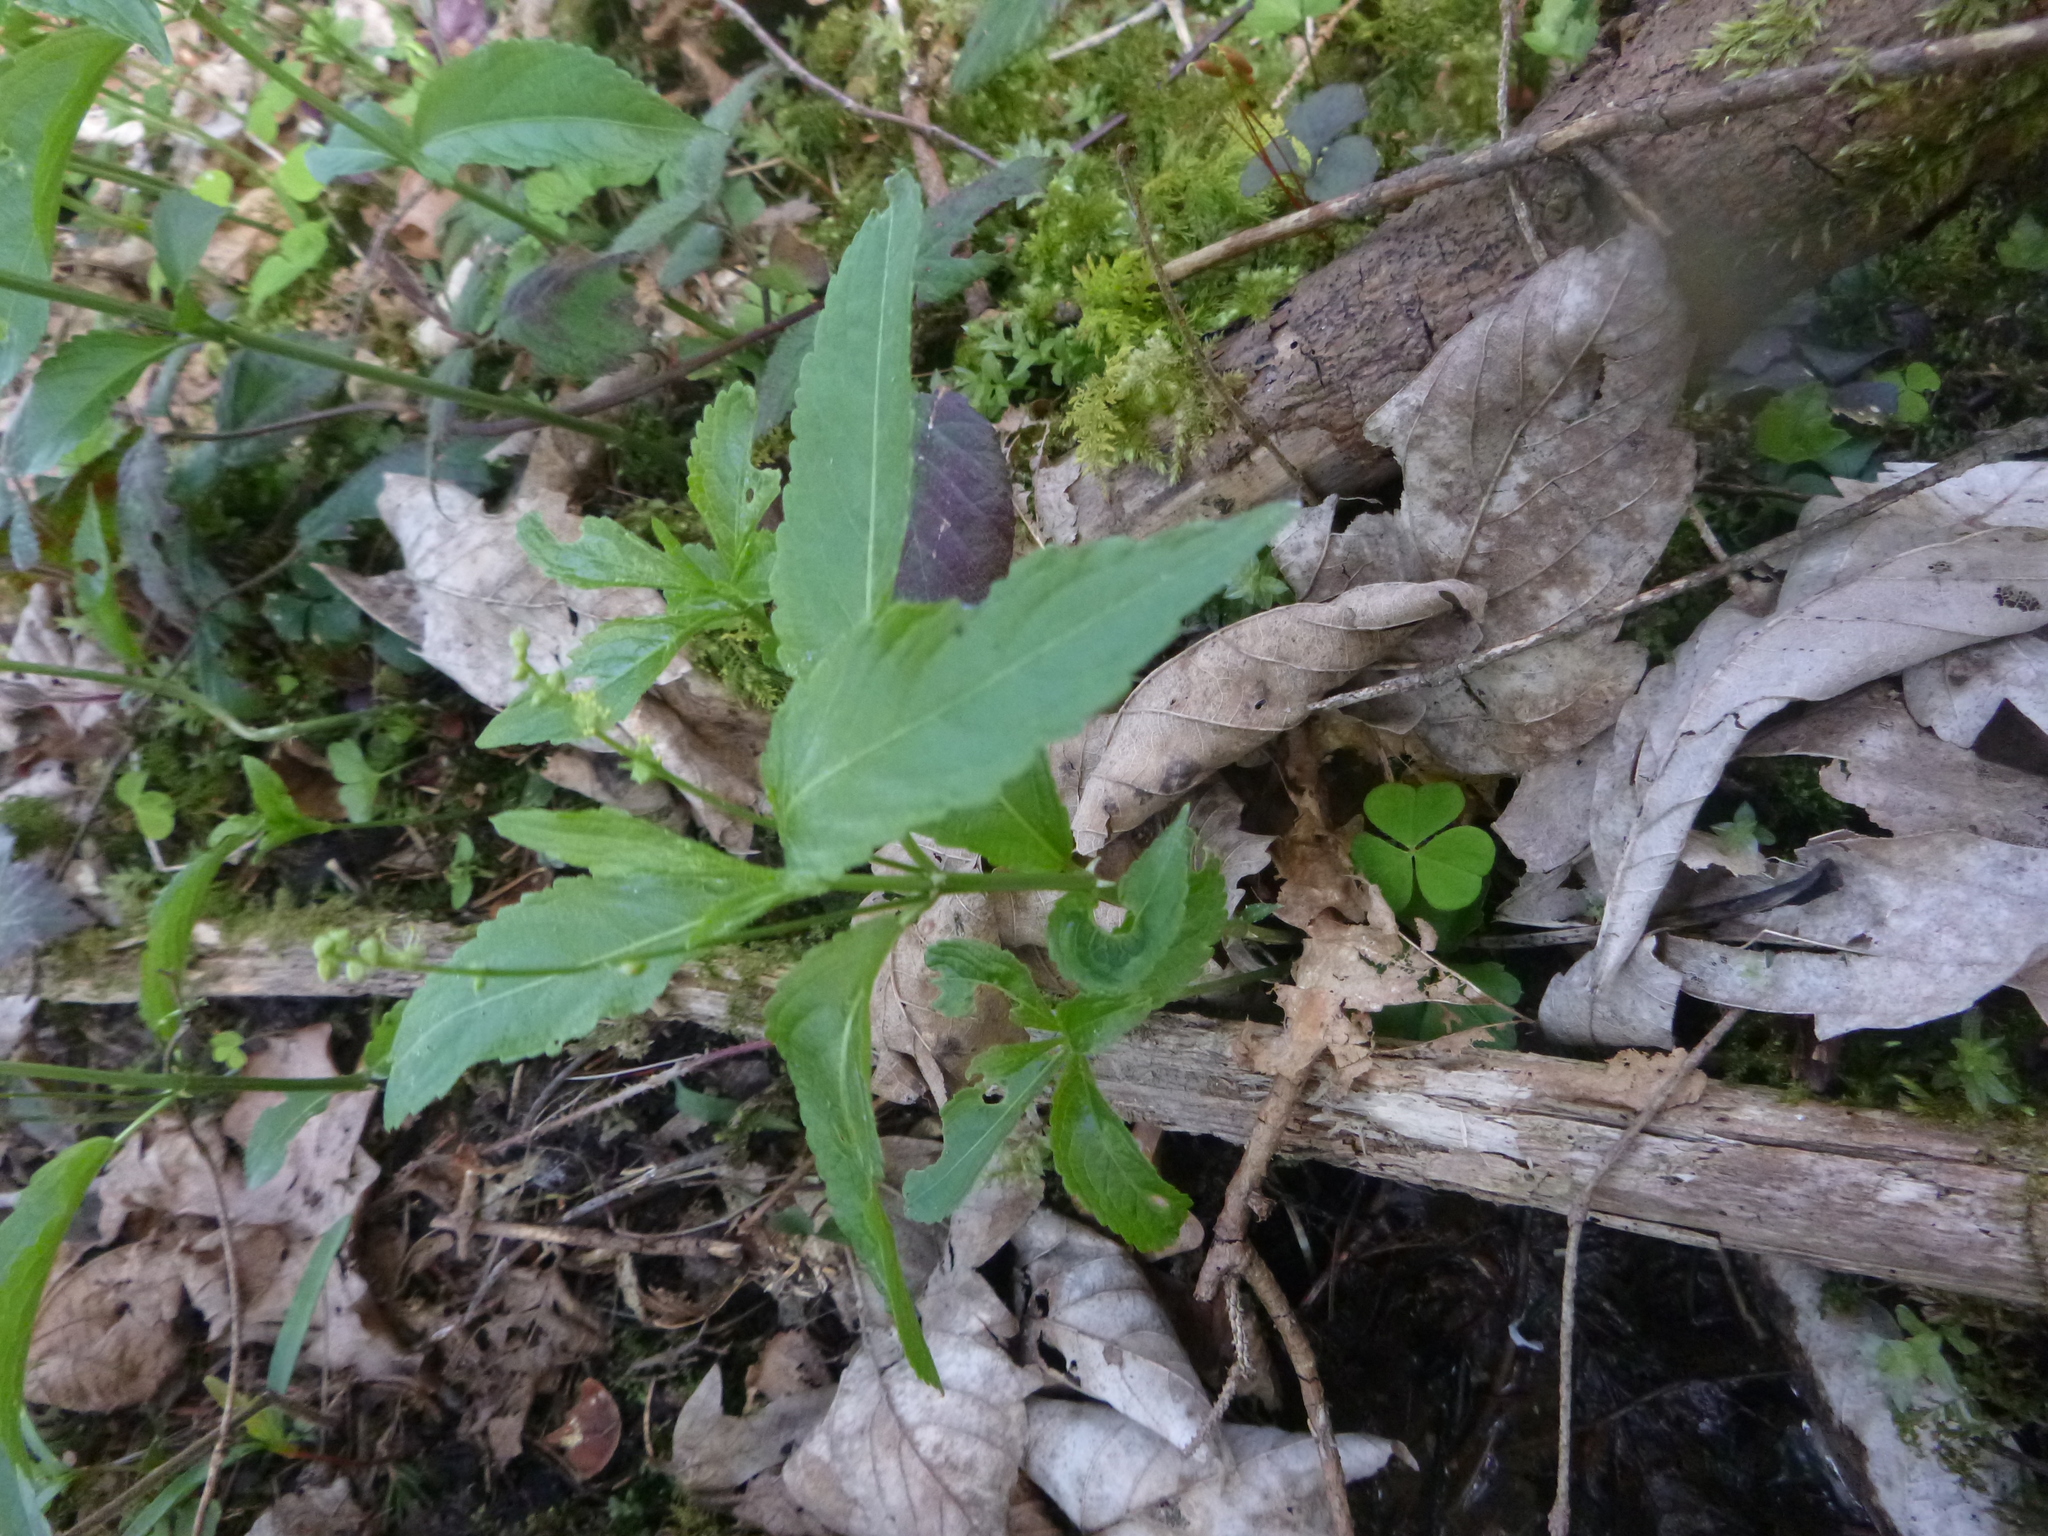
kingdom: Plantae
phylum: Tracheophyta
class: Magnoliopsida
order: Malpighiales
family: Euphorbiaceae
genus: Mercurialis
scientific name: Mercurialis perennis
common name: Dog mercury
